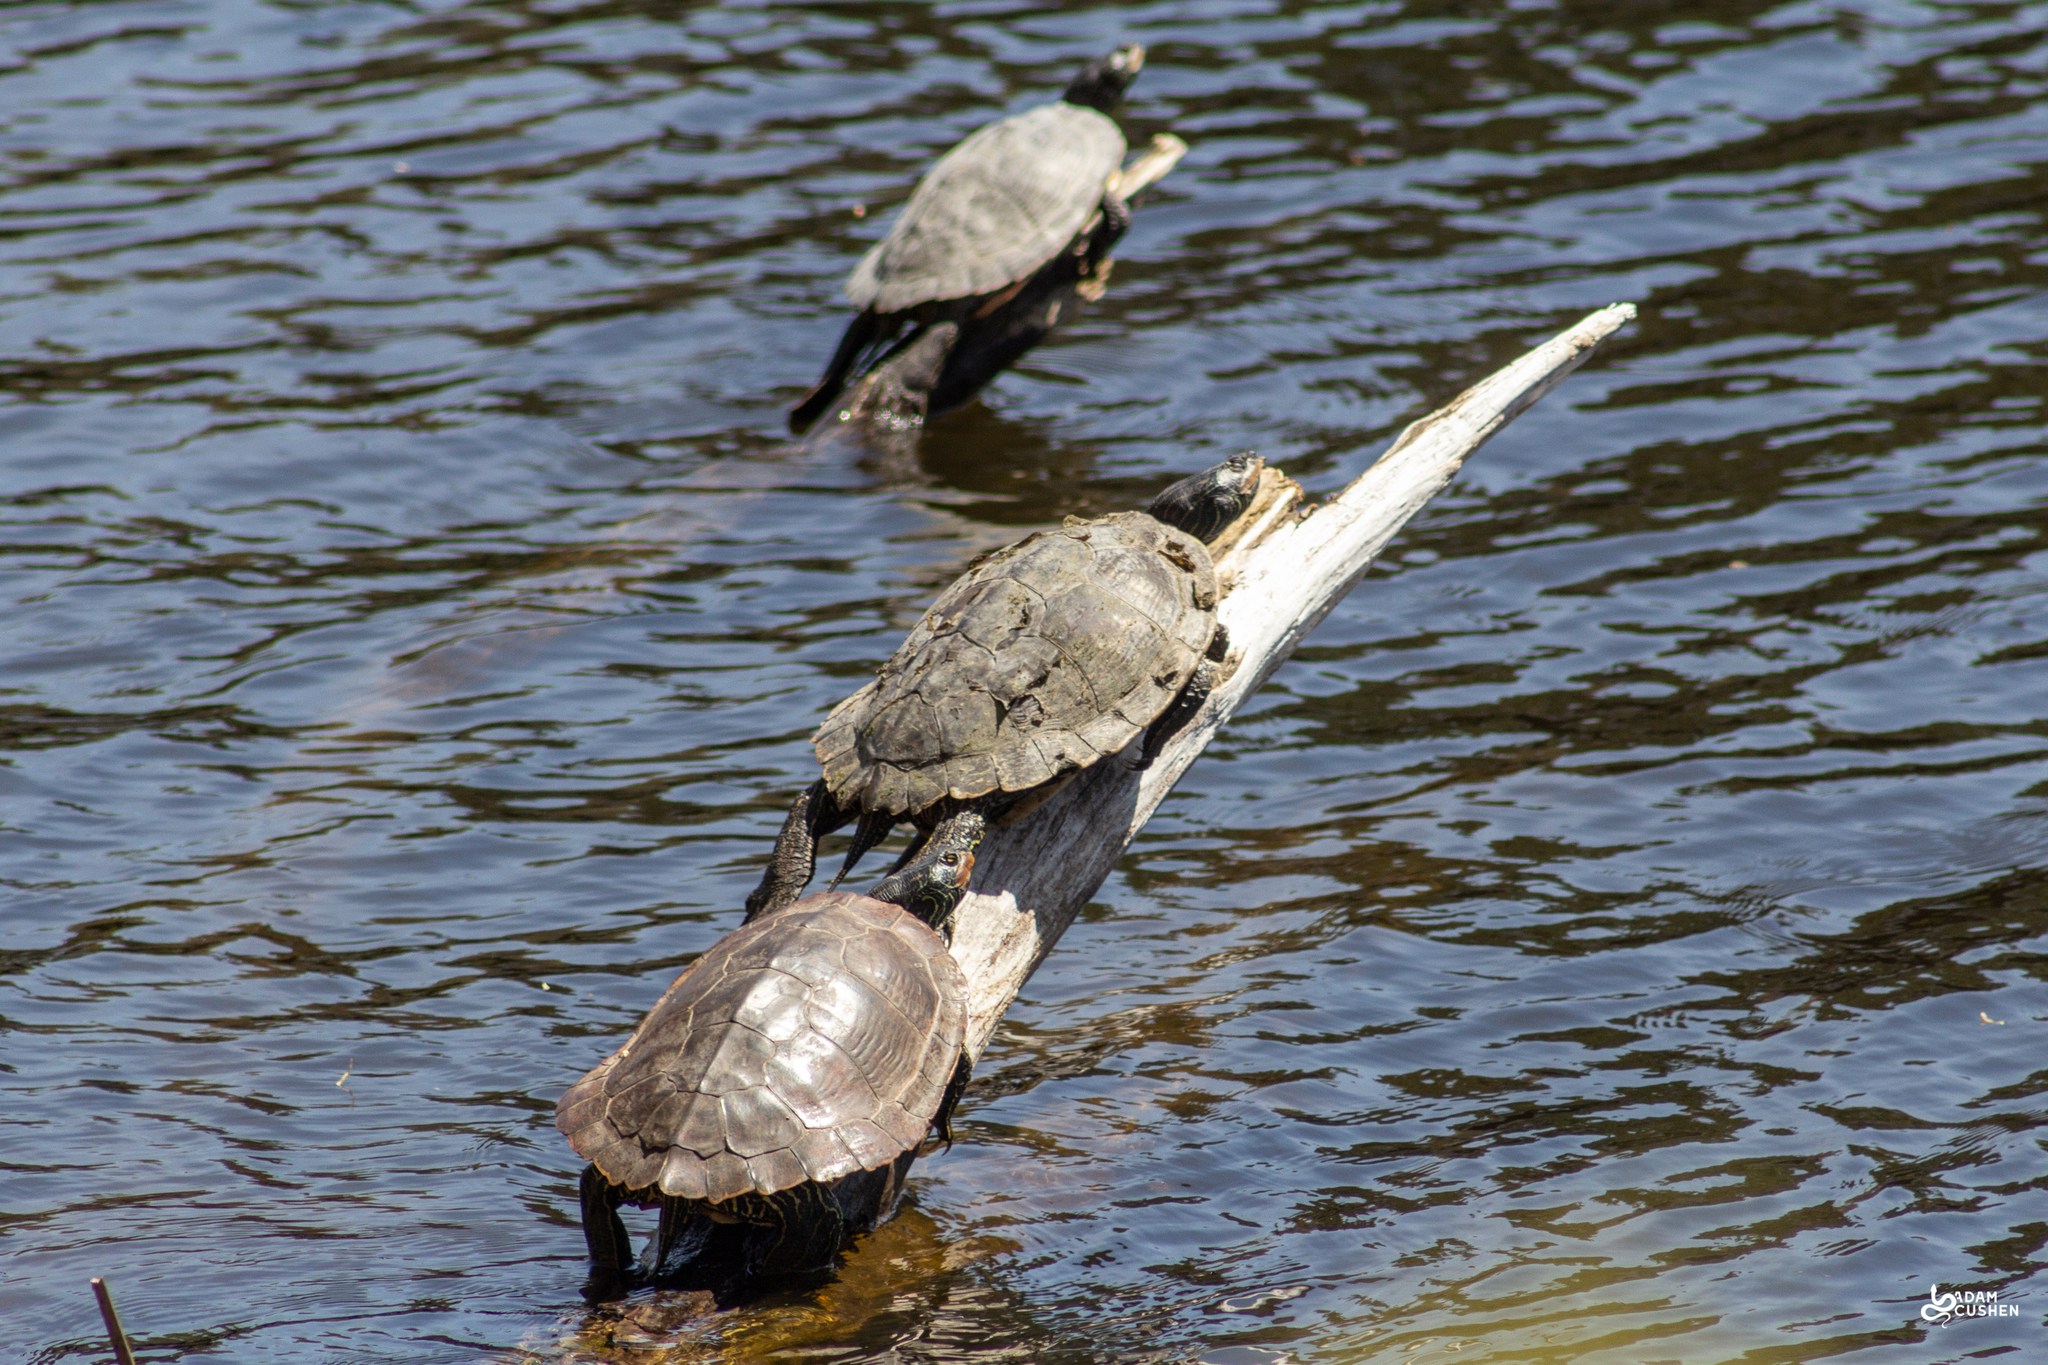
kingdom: Animalia
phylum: Chordata
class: Testudines
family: Emydidae
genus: Graptemys
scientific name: Graptemys geographica
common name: Common map turtle
